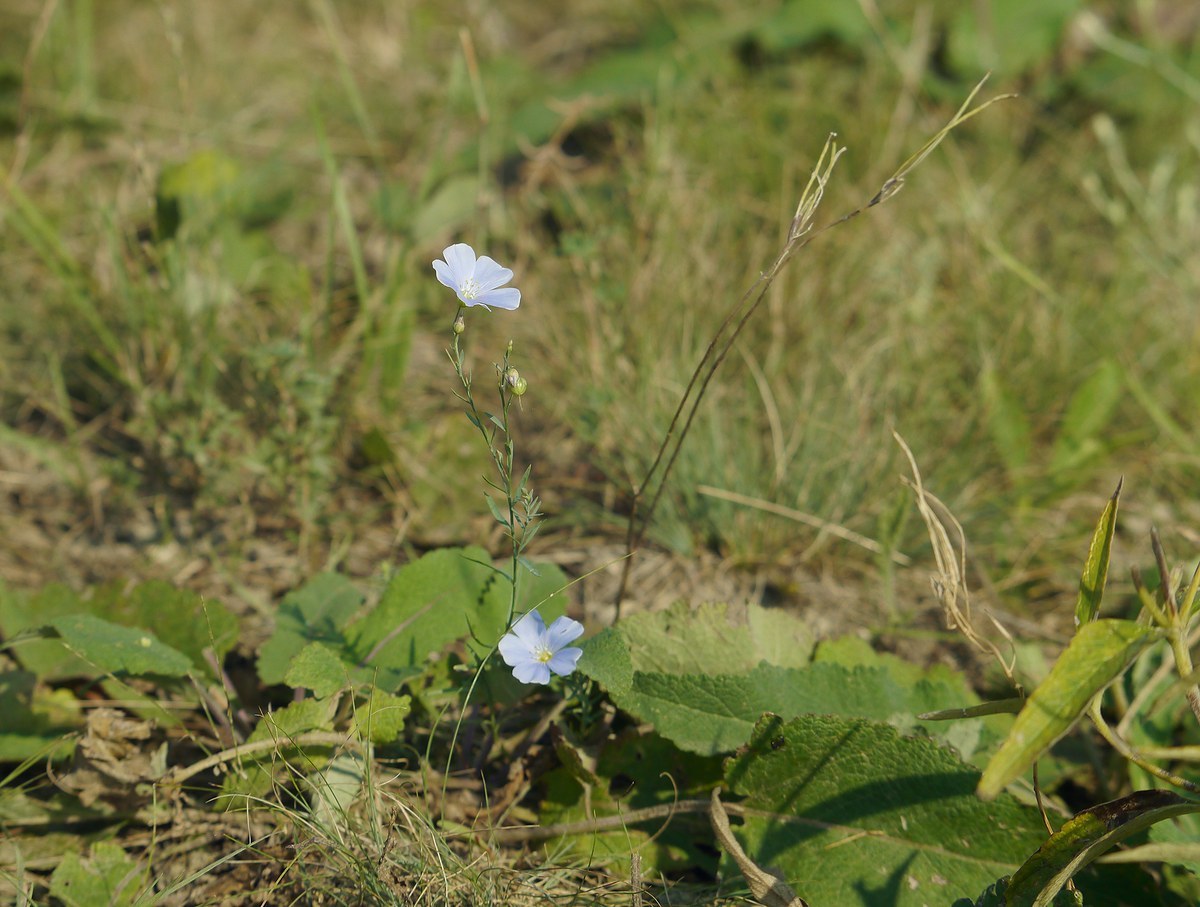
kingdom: Plantae
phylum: Tracheophyta
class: Magnoliopsida
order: Malpighiales
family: Linaceae
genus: Linum
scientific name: Linum austriacum
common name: Austrian flax
